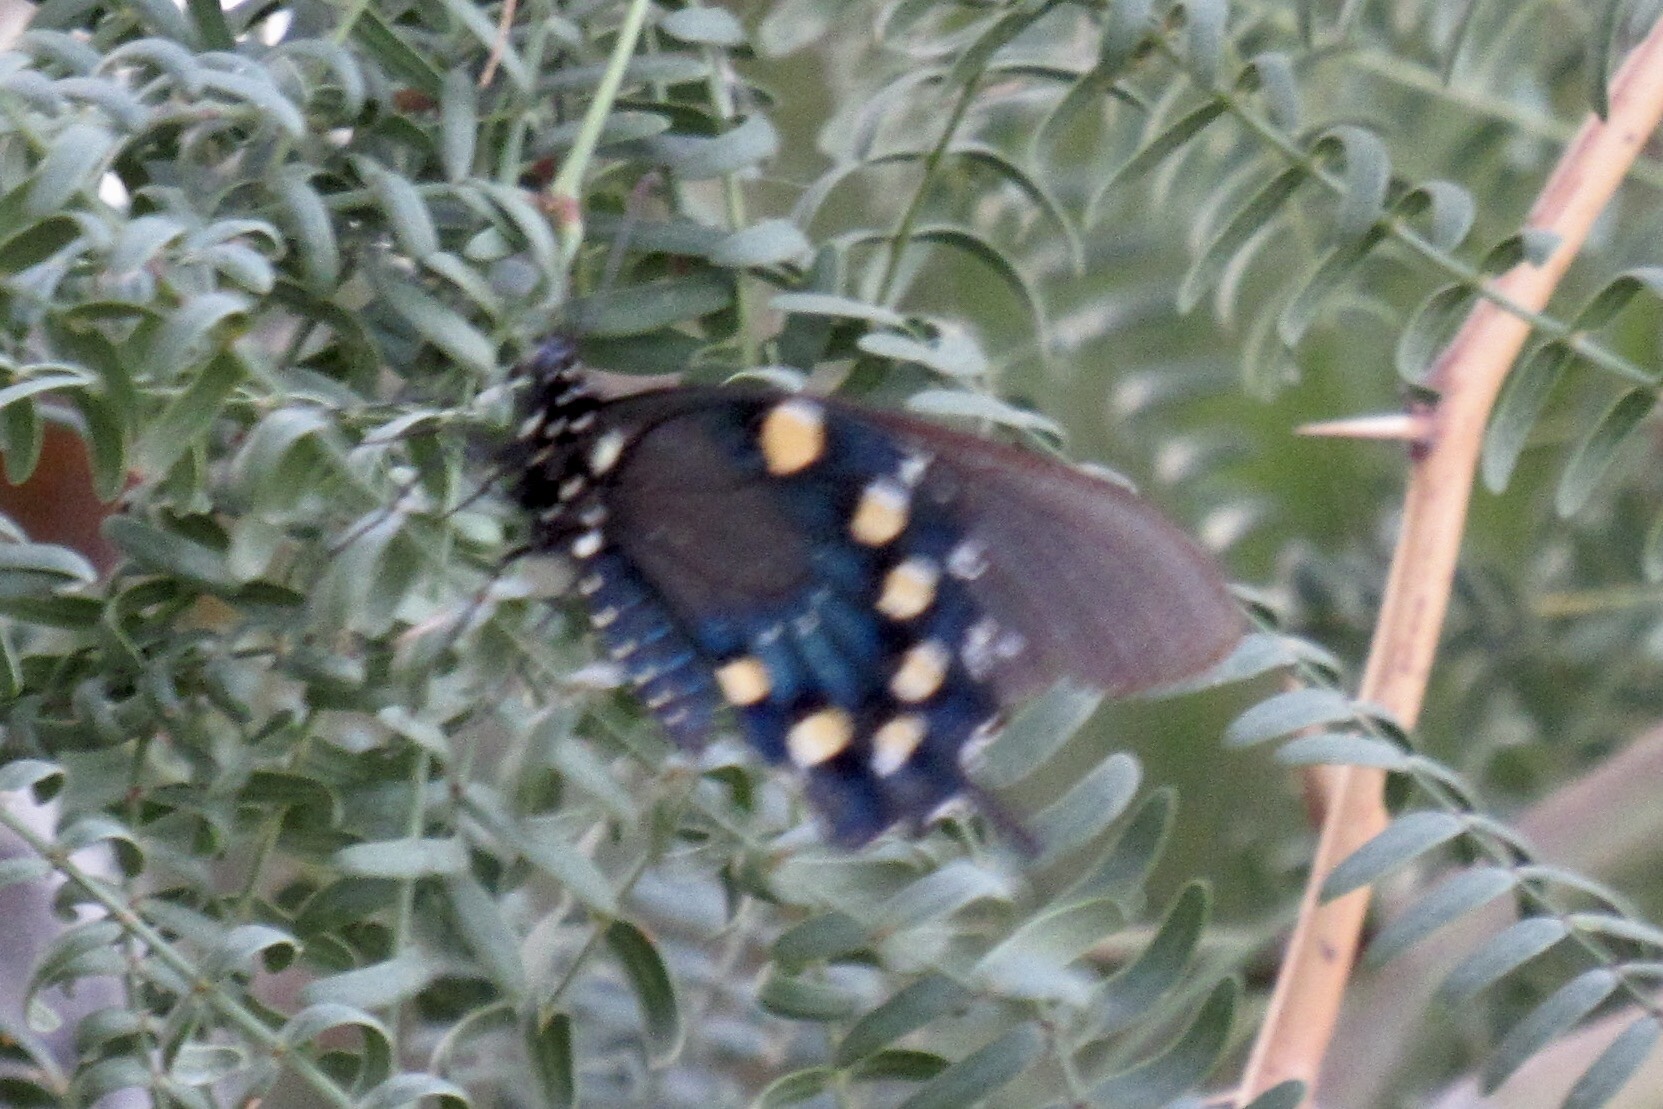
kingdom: Animalia
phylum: Arthropoda
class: Insecta
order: Lepidoptera
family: Papilionidae
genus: Battus
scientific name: Battus philenor
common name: Pipevine swallowtail
